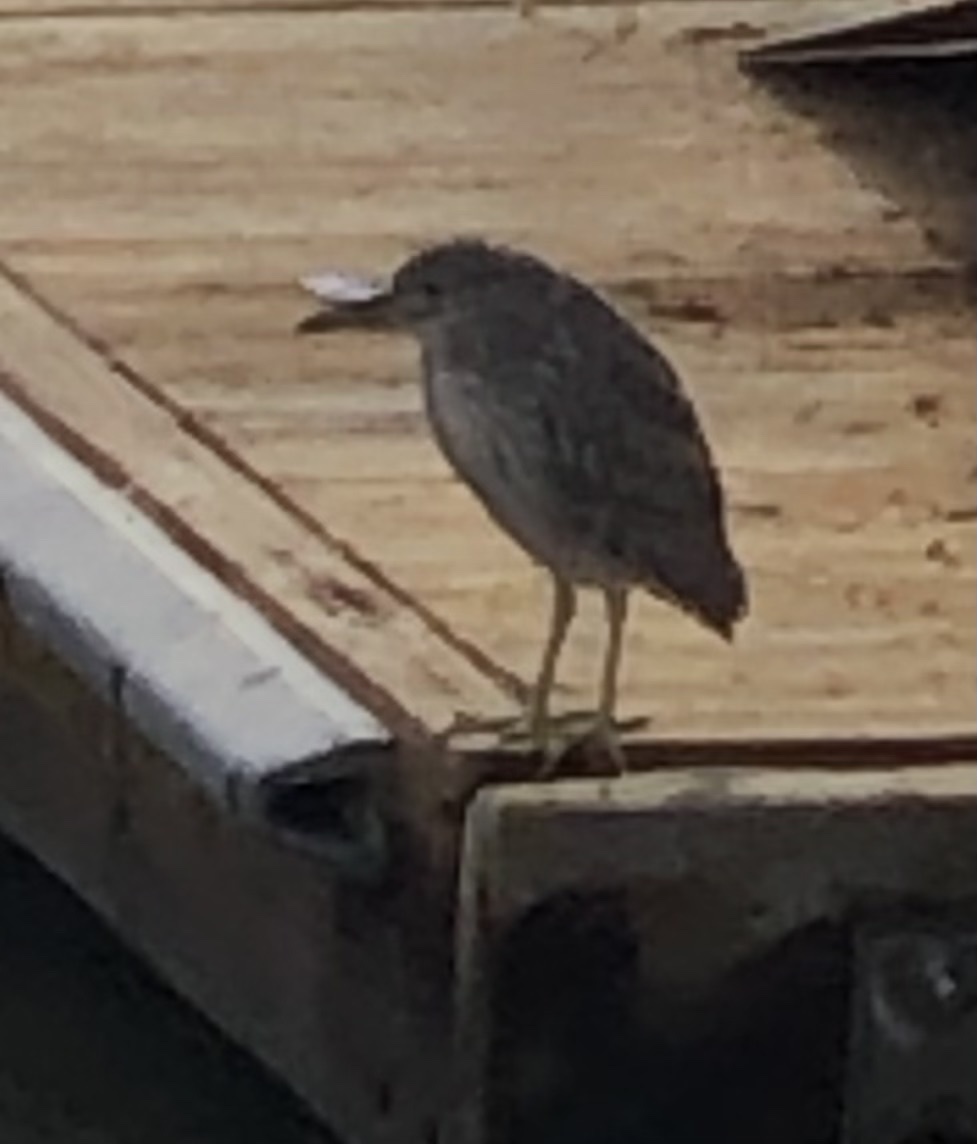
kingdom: Animalia
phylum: Chordata
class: Aves
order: Pelecaniformes
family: Ardeidae
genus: Nycticorax
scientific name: Nycticorax nycticorax
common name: Black-crowned night heron
